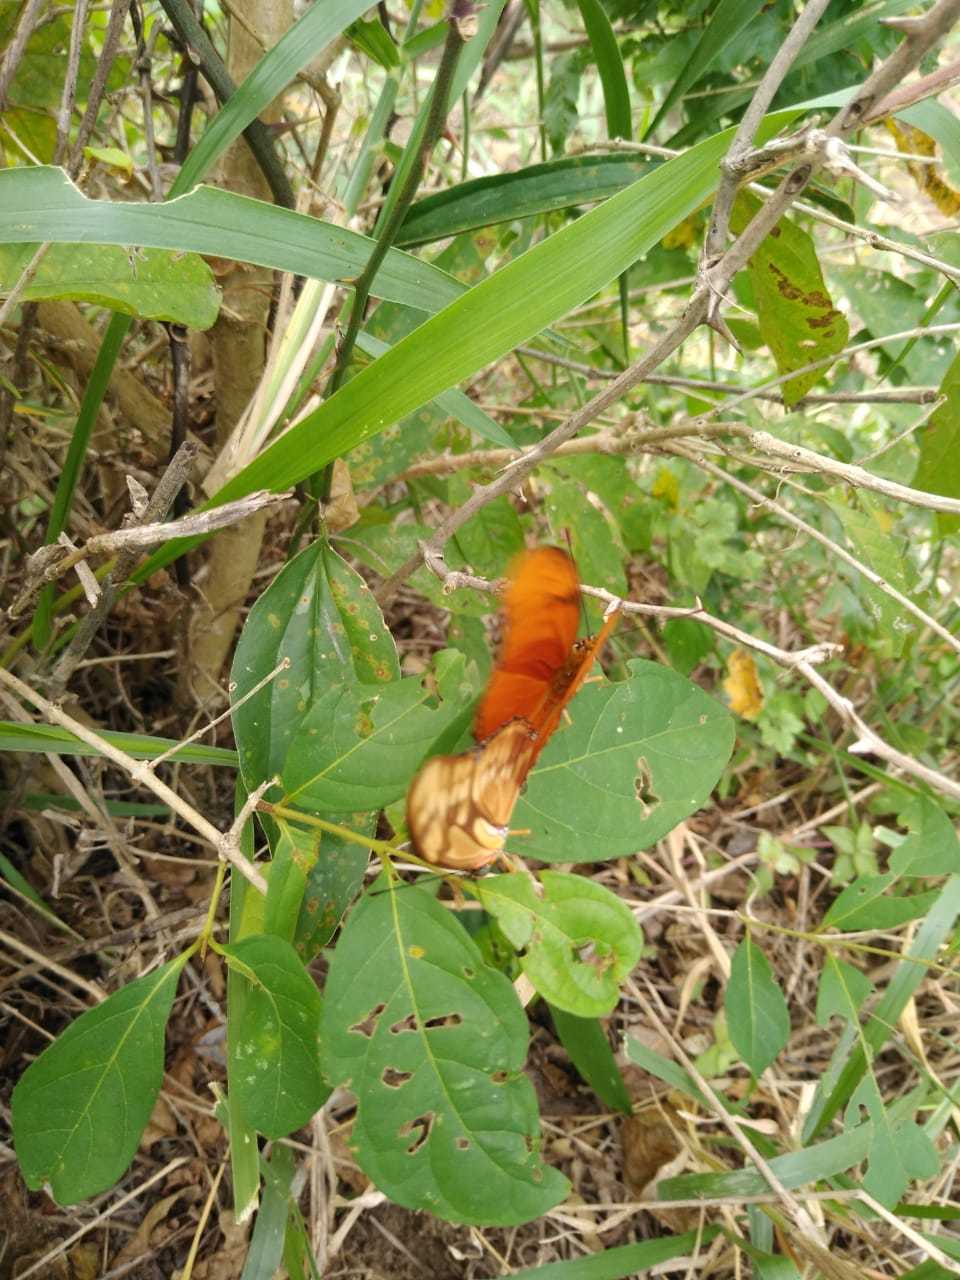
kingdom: Animalia
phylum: Arthropoda
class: Insecta
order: Lepidoptera
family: Nymphalidae
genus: Dryas
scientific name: Dryas iulia
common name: Flambeau
